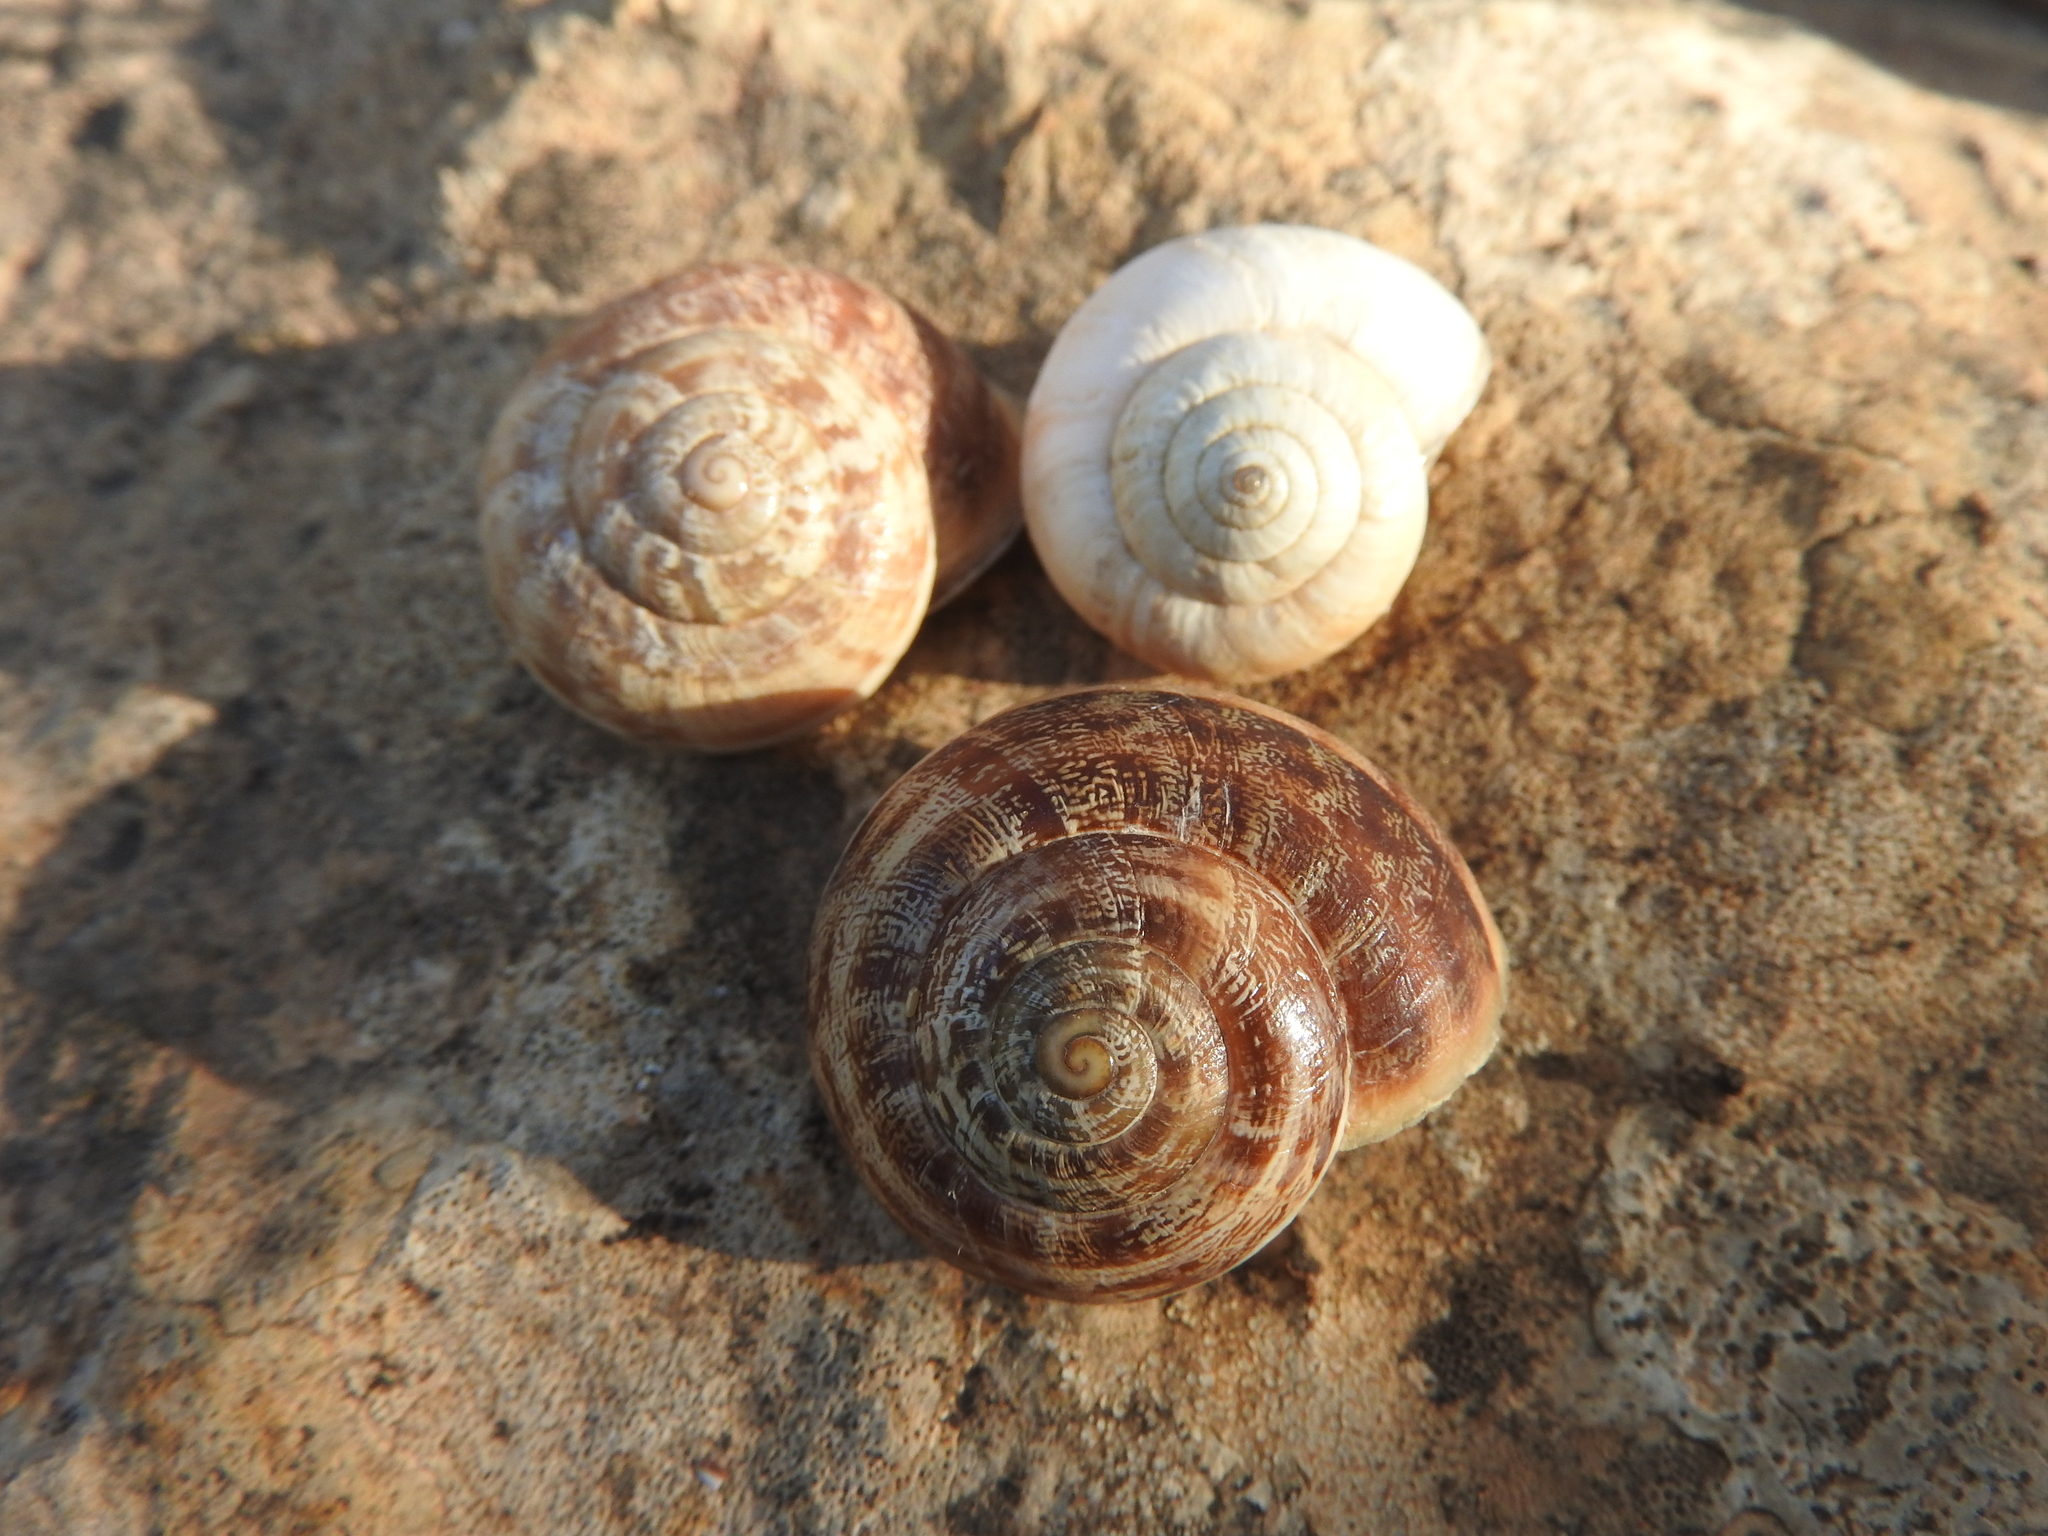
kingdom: Animalia
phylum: Mollusca
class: Gastropoda
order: Stylommatophora
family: Helicidae
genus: Eobania
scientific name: Eobania vermiculata
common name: Chocolateband snail
